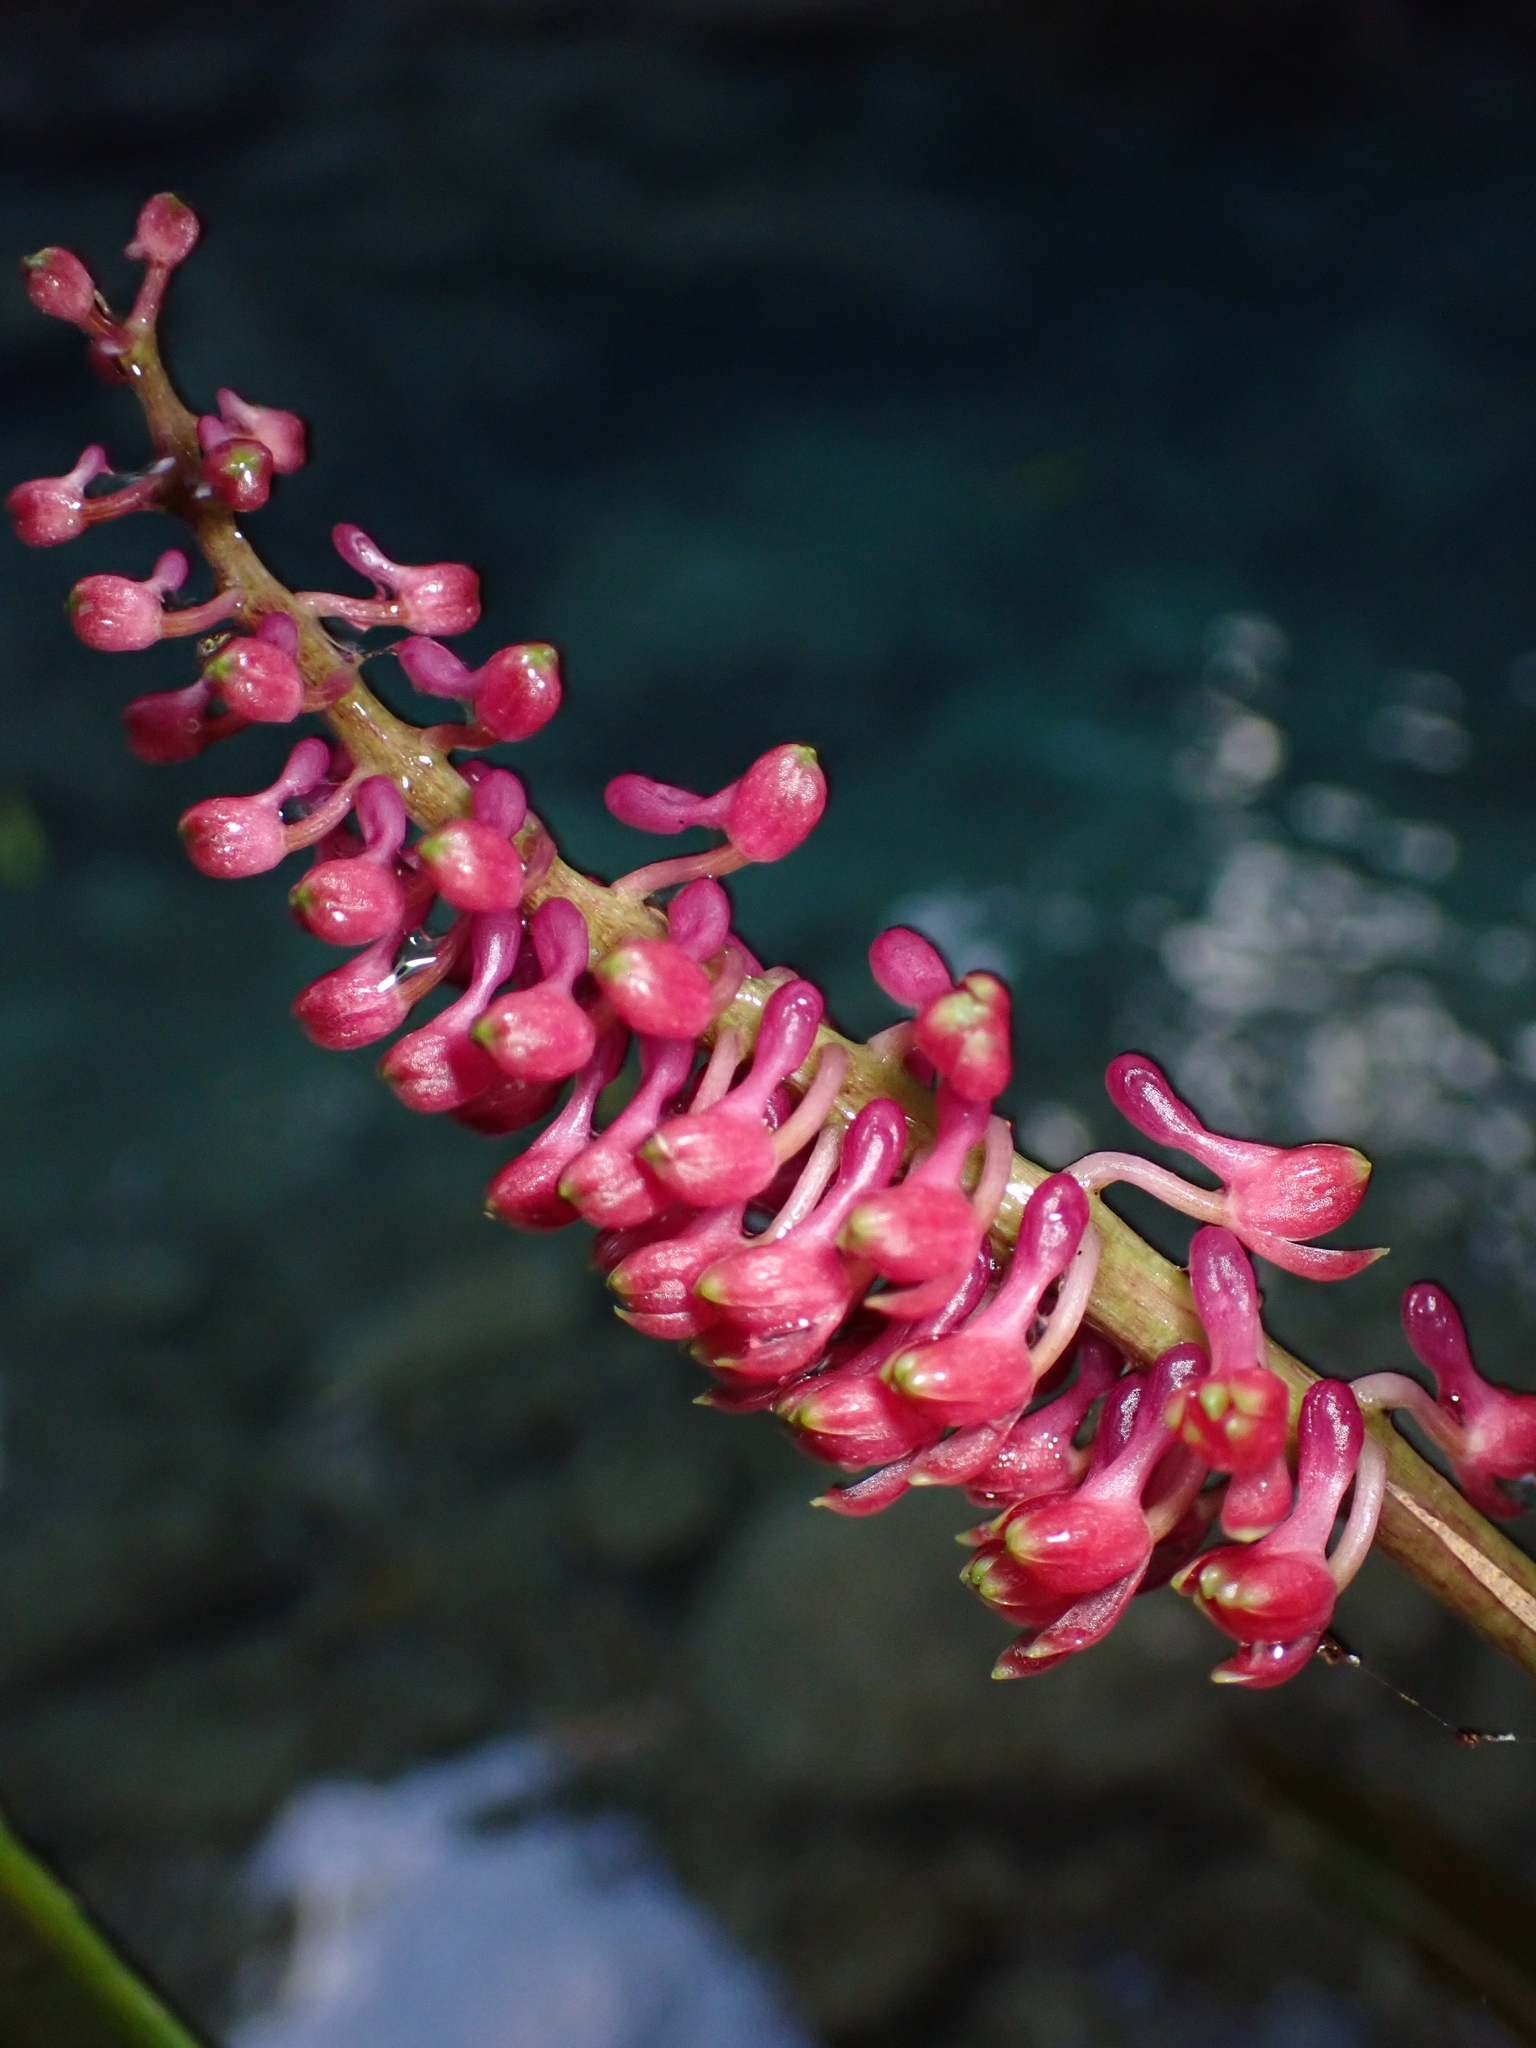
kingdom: Plantae
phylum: Tracheophyta
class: Liliopsida
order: Asparagales
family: Orchidaceae
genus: Robiquetia
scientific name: Robiquetia bertholdii
